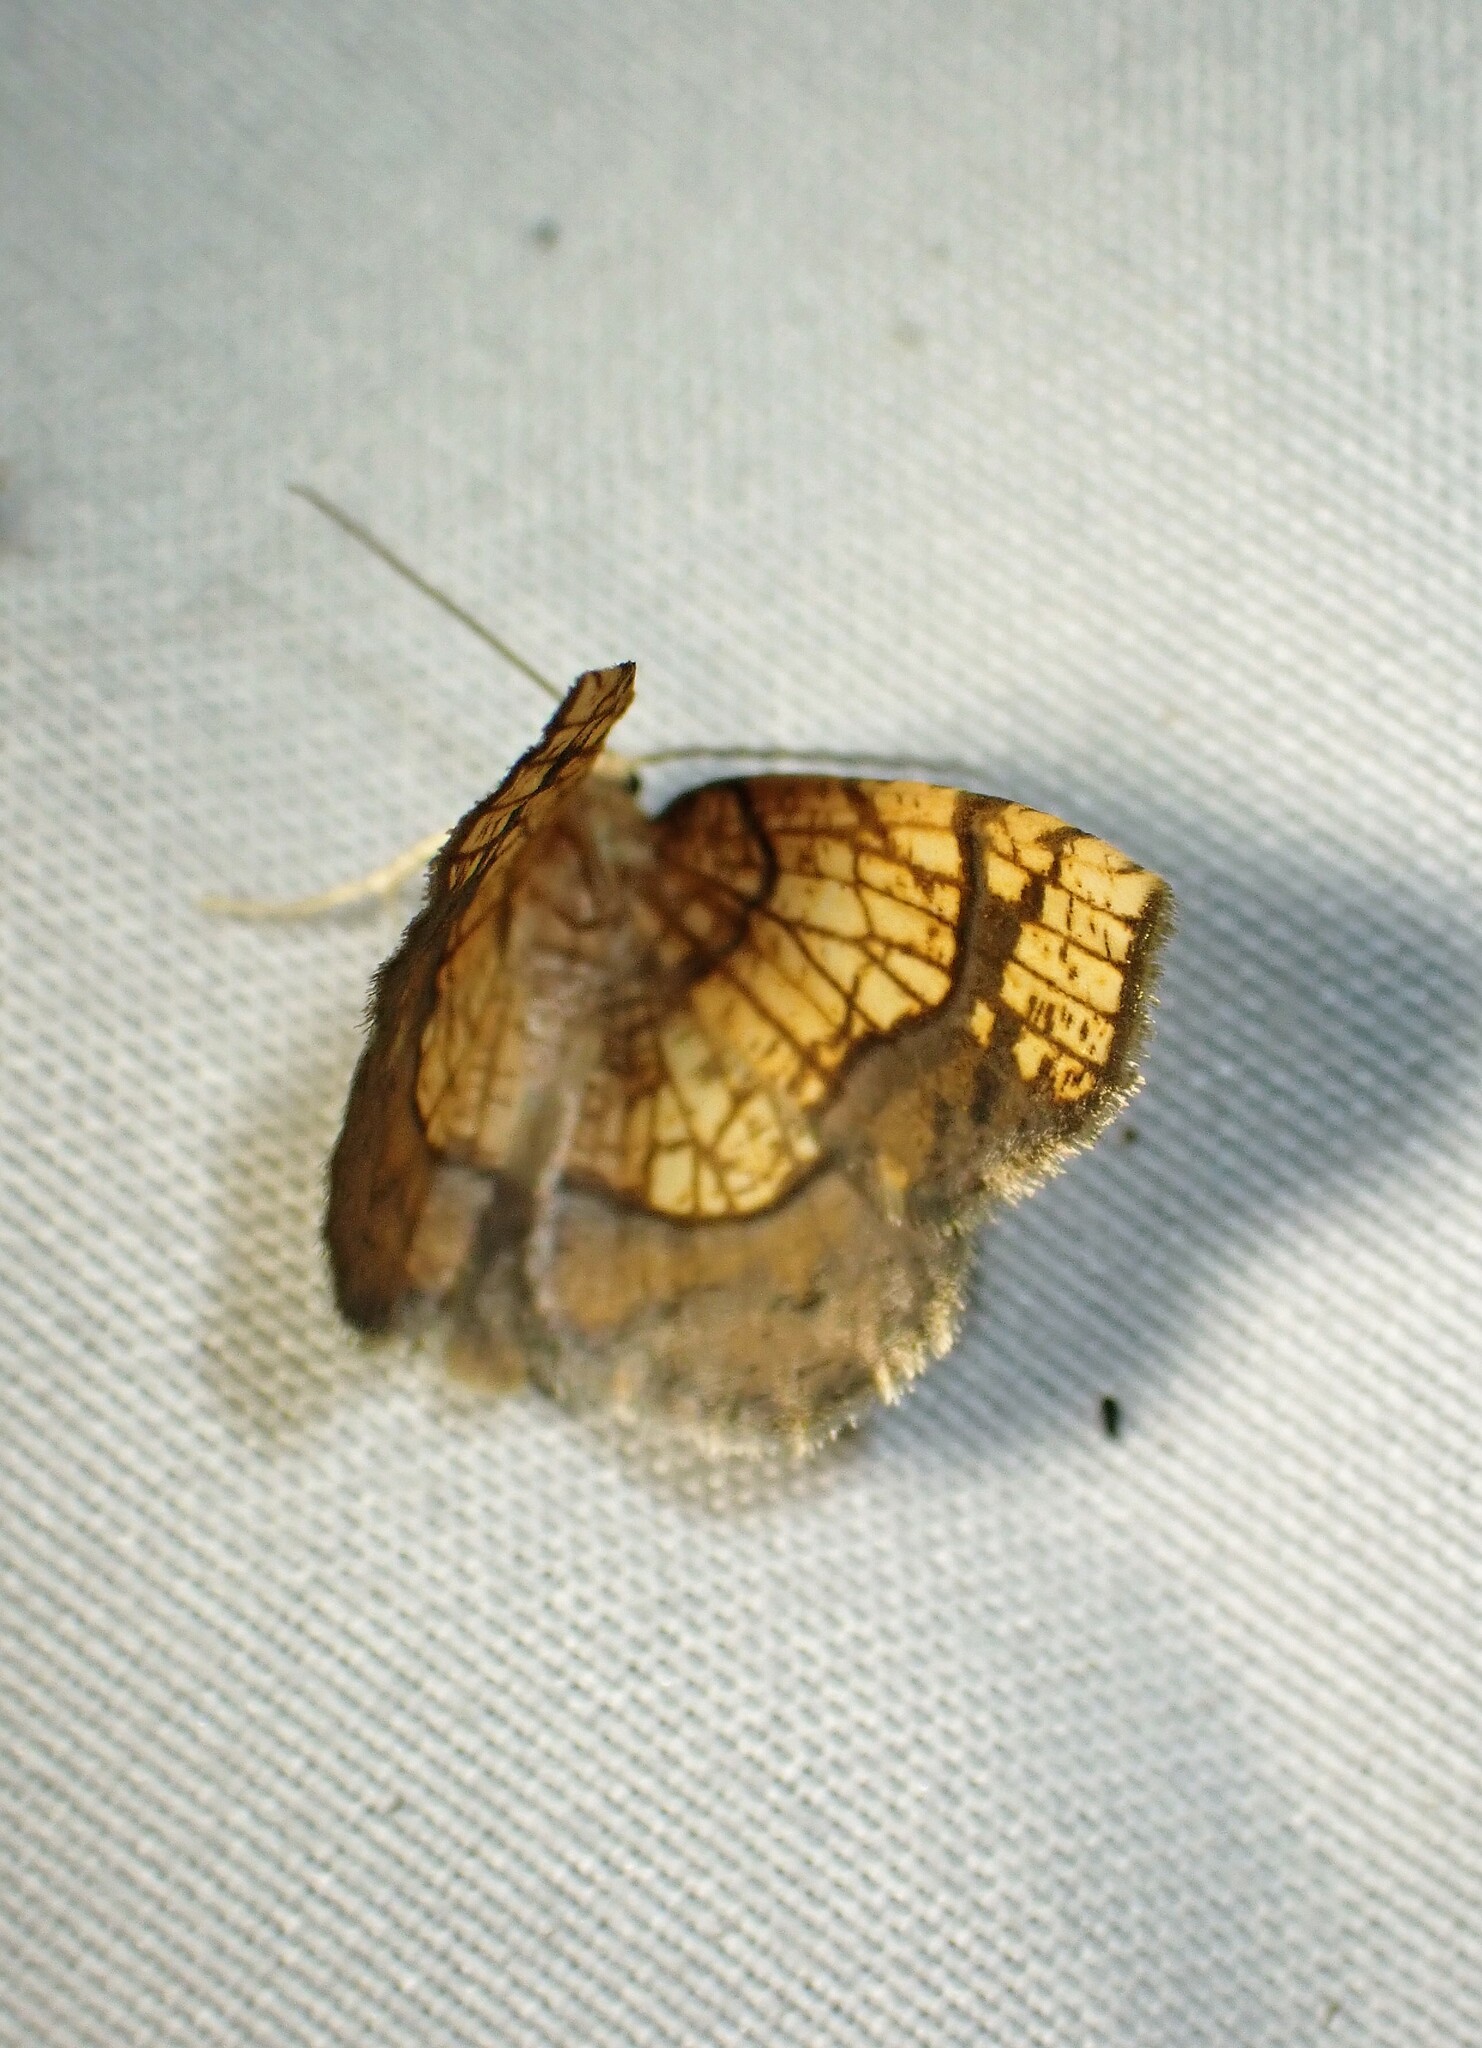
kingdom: Animalia
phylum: Arthropoda
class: Insecta
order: Lepidoptera
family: Geometridae
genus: Nematocampa
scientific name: Nematocampa resistaria
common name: Horned spanworm moth
